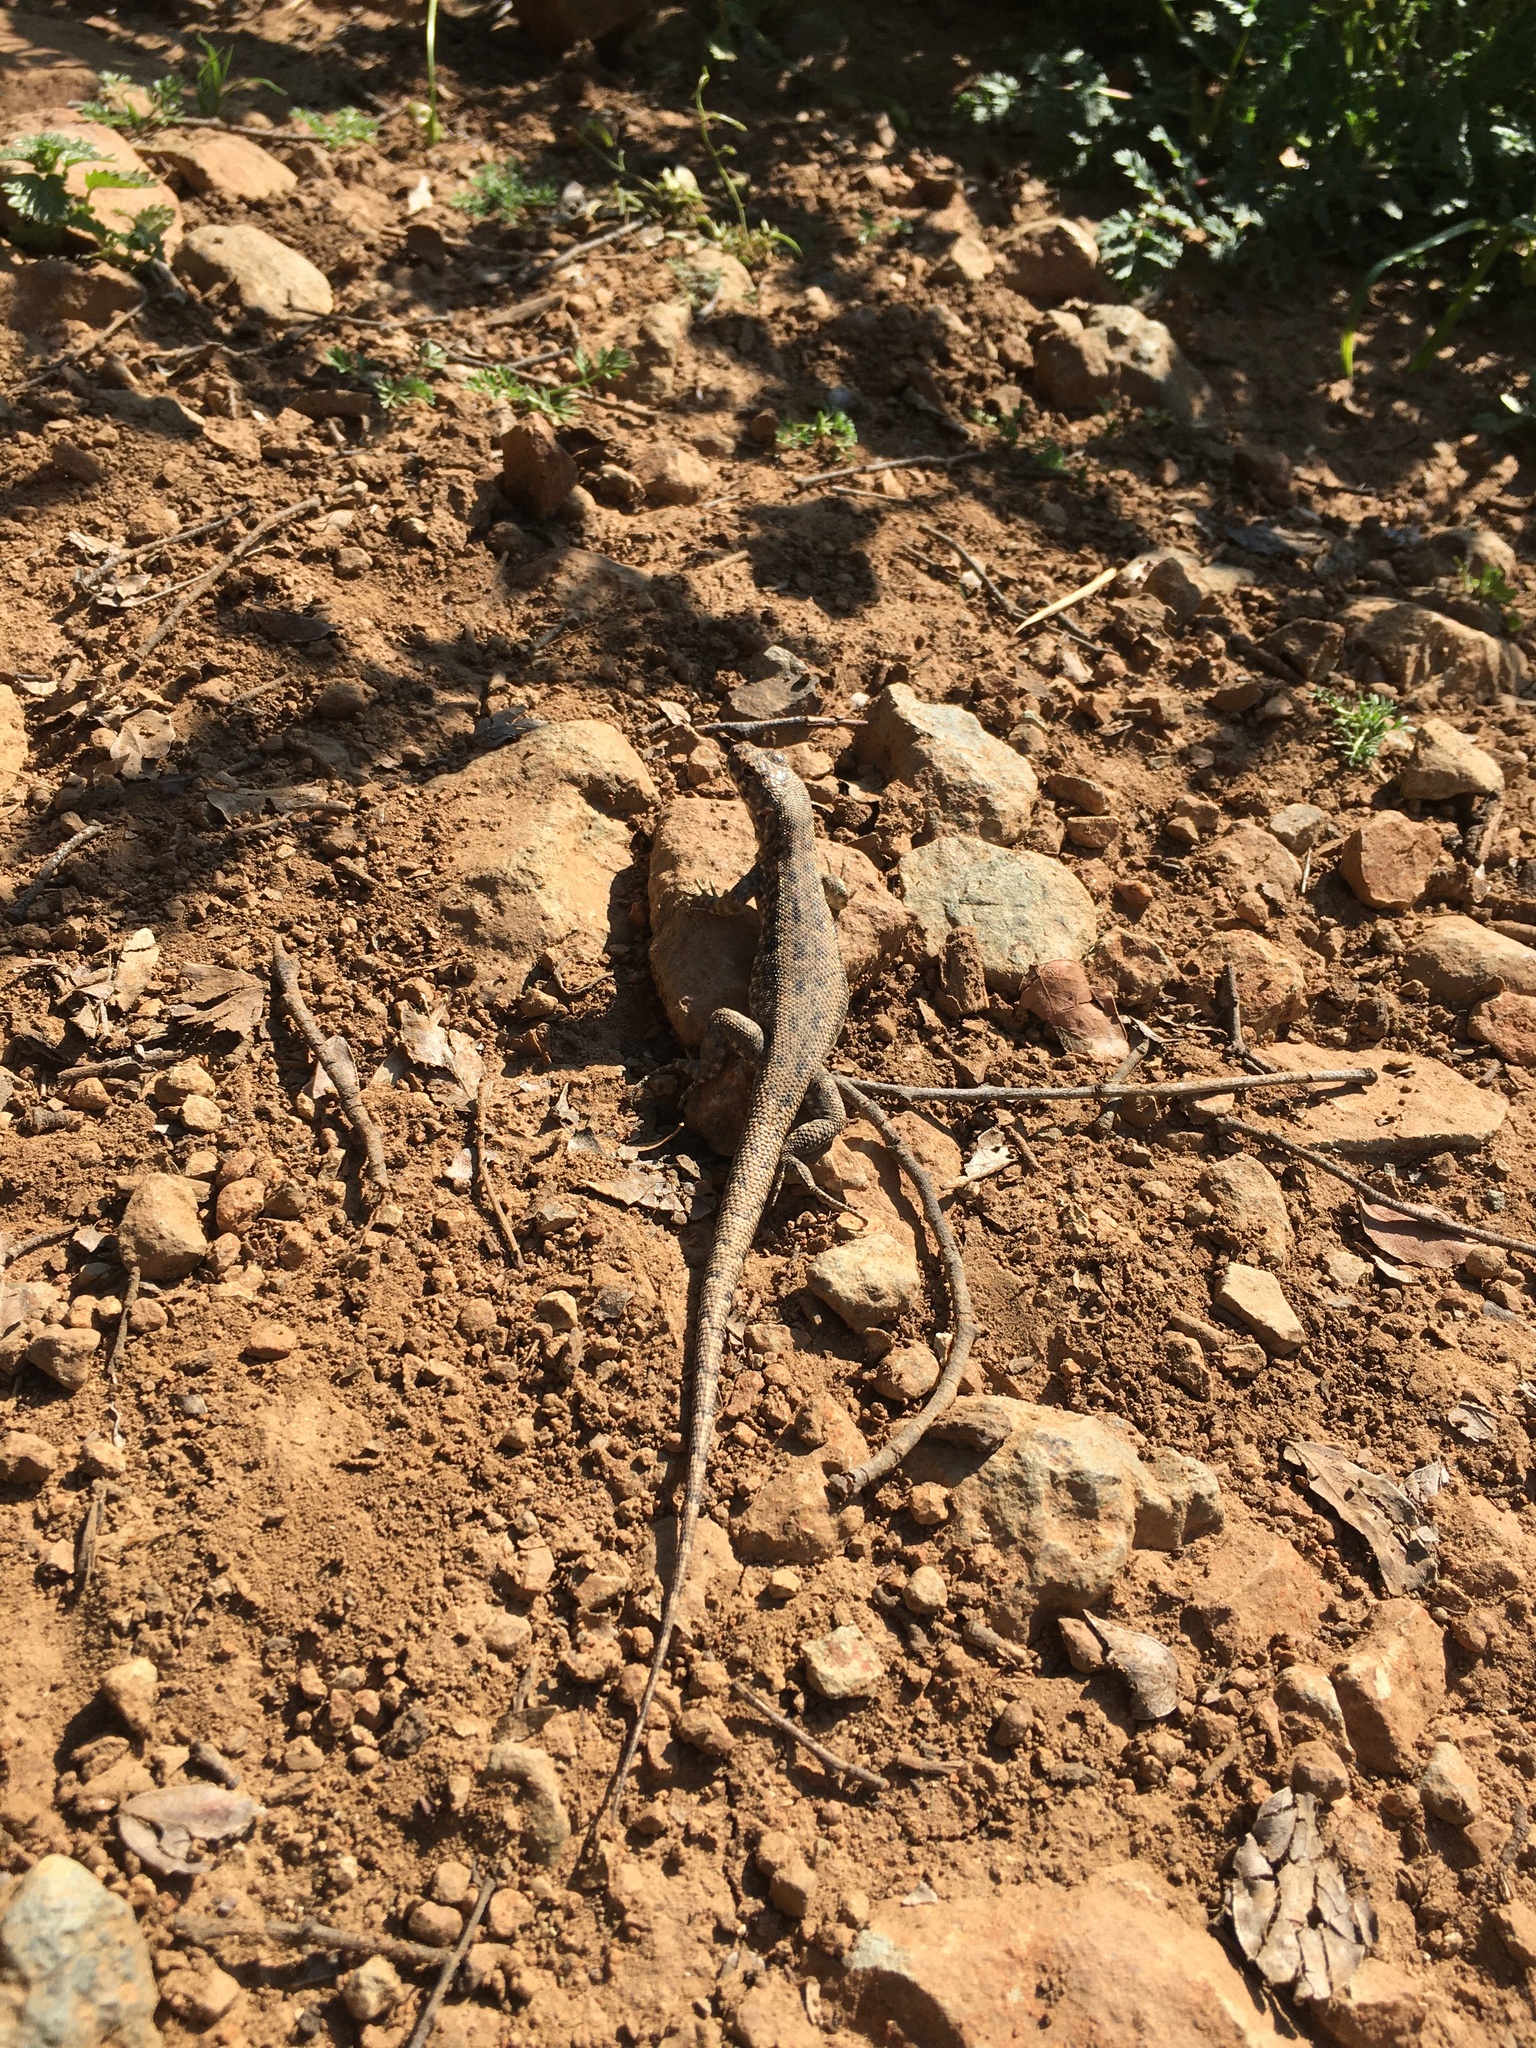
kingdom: Animalia
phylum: Chordata
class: Squamata
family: Liolaemidae
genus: Liolaemus
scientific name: Liolaemus monticola
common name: Peak tree iguana
